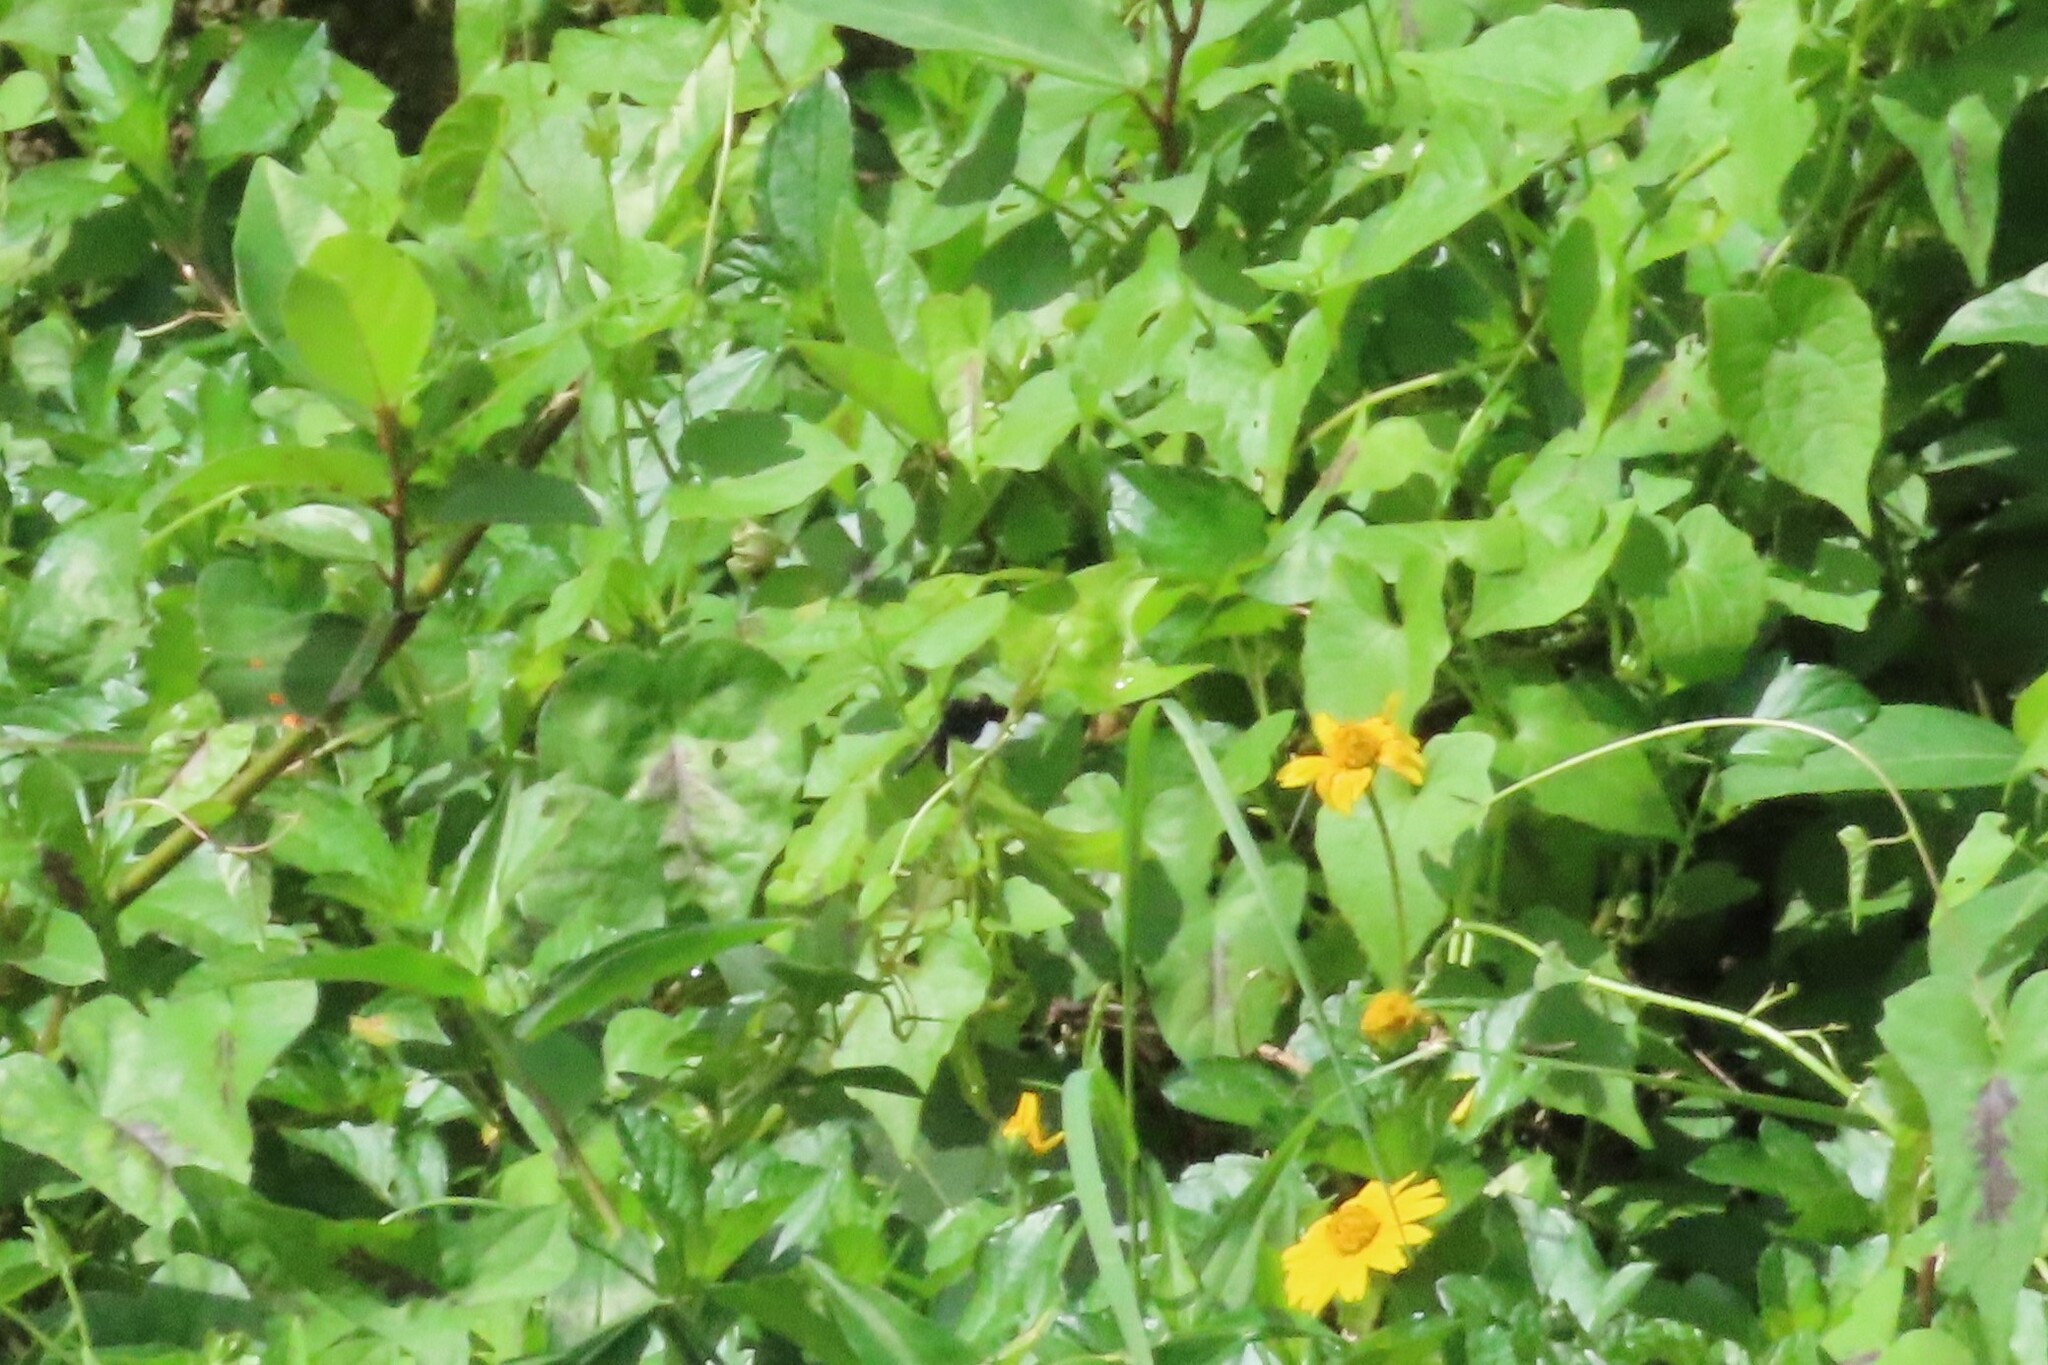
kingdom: Animalia
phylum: Arthropoda
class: Insecta
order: Odonata
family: Libellulidae
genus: Neurothemis
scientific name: Neurothemis tullia
